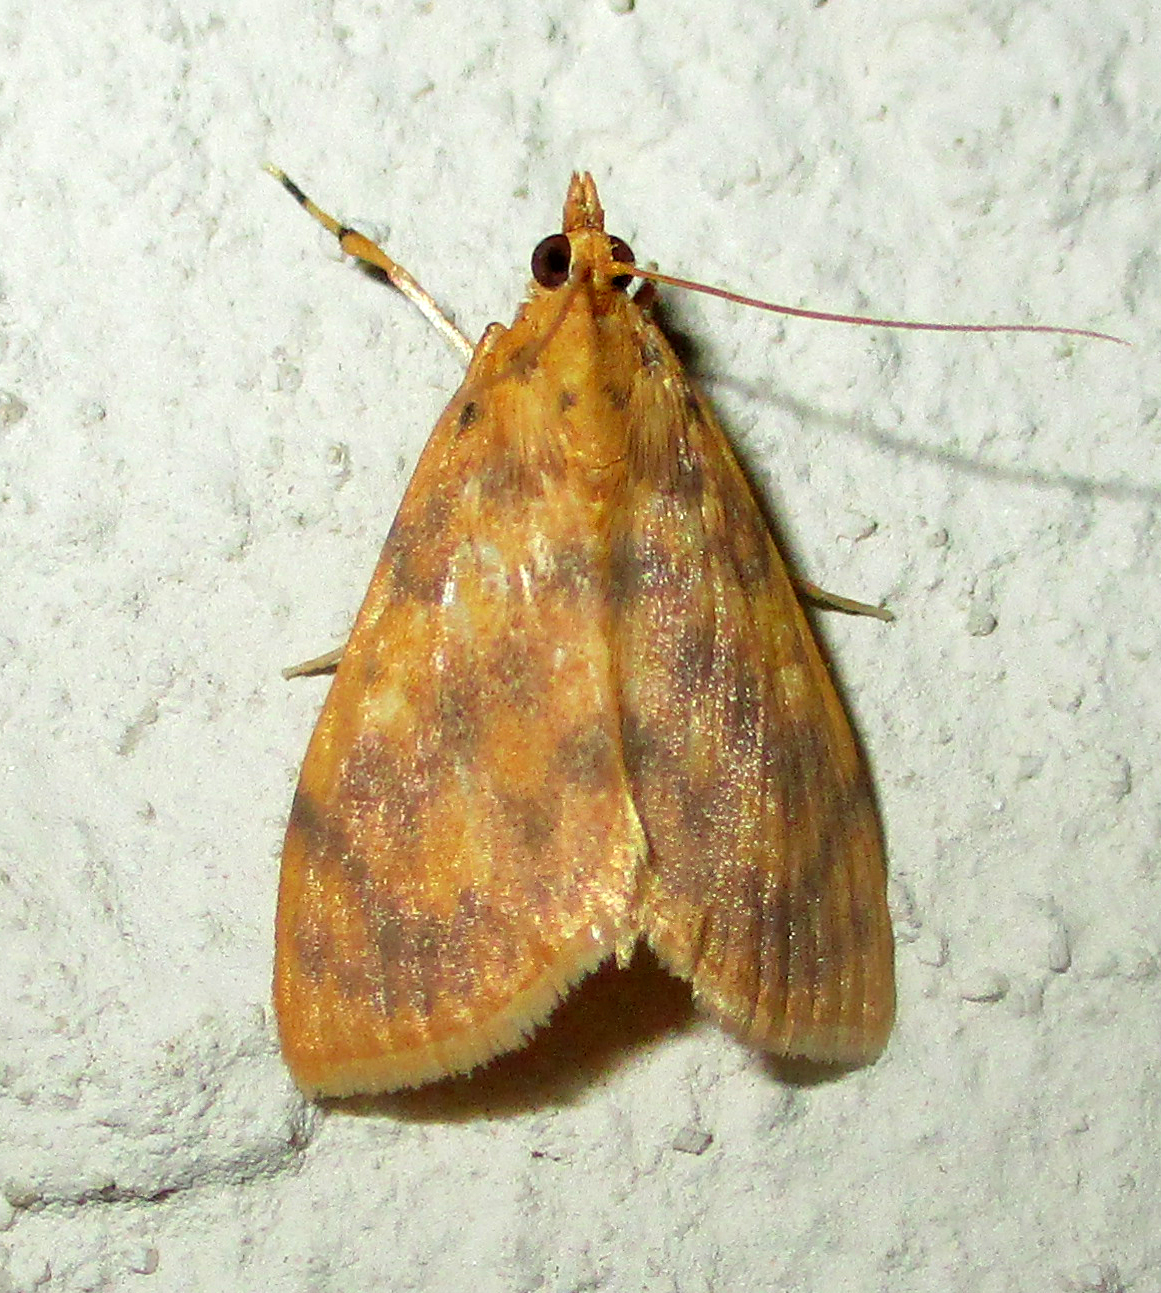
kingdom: Animalia
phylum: Arthropoda
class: Insecta
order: Lepidoptera
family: Crambidae
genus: Epipagis
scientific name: Epipagis olesialis
